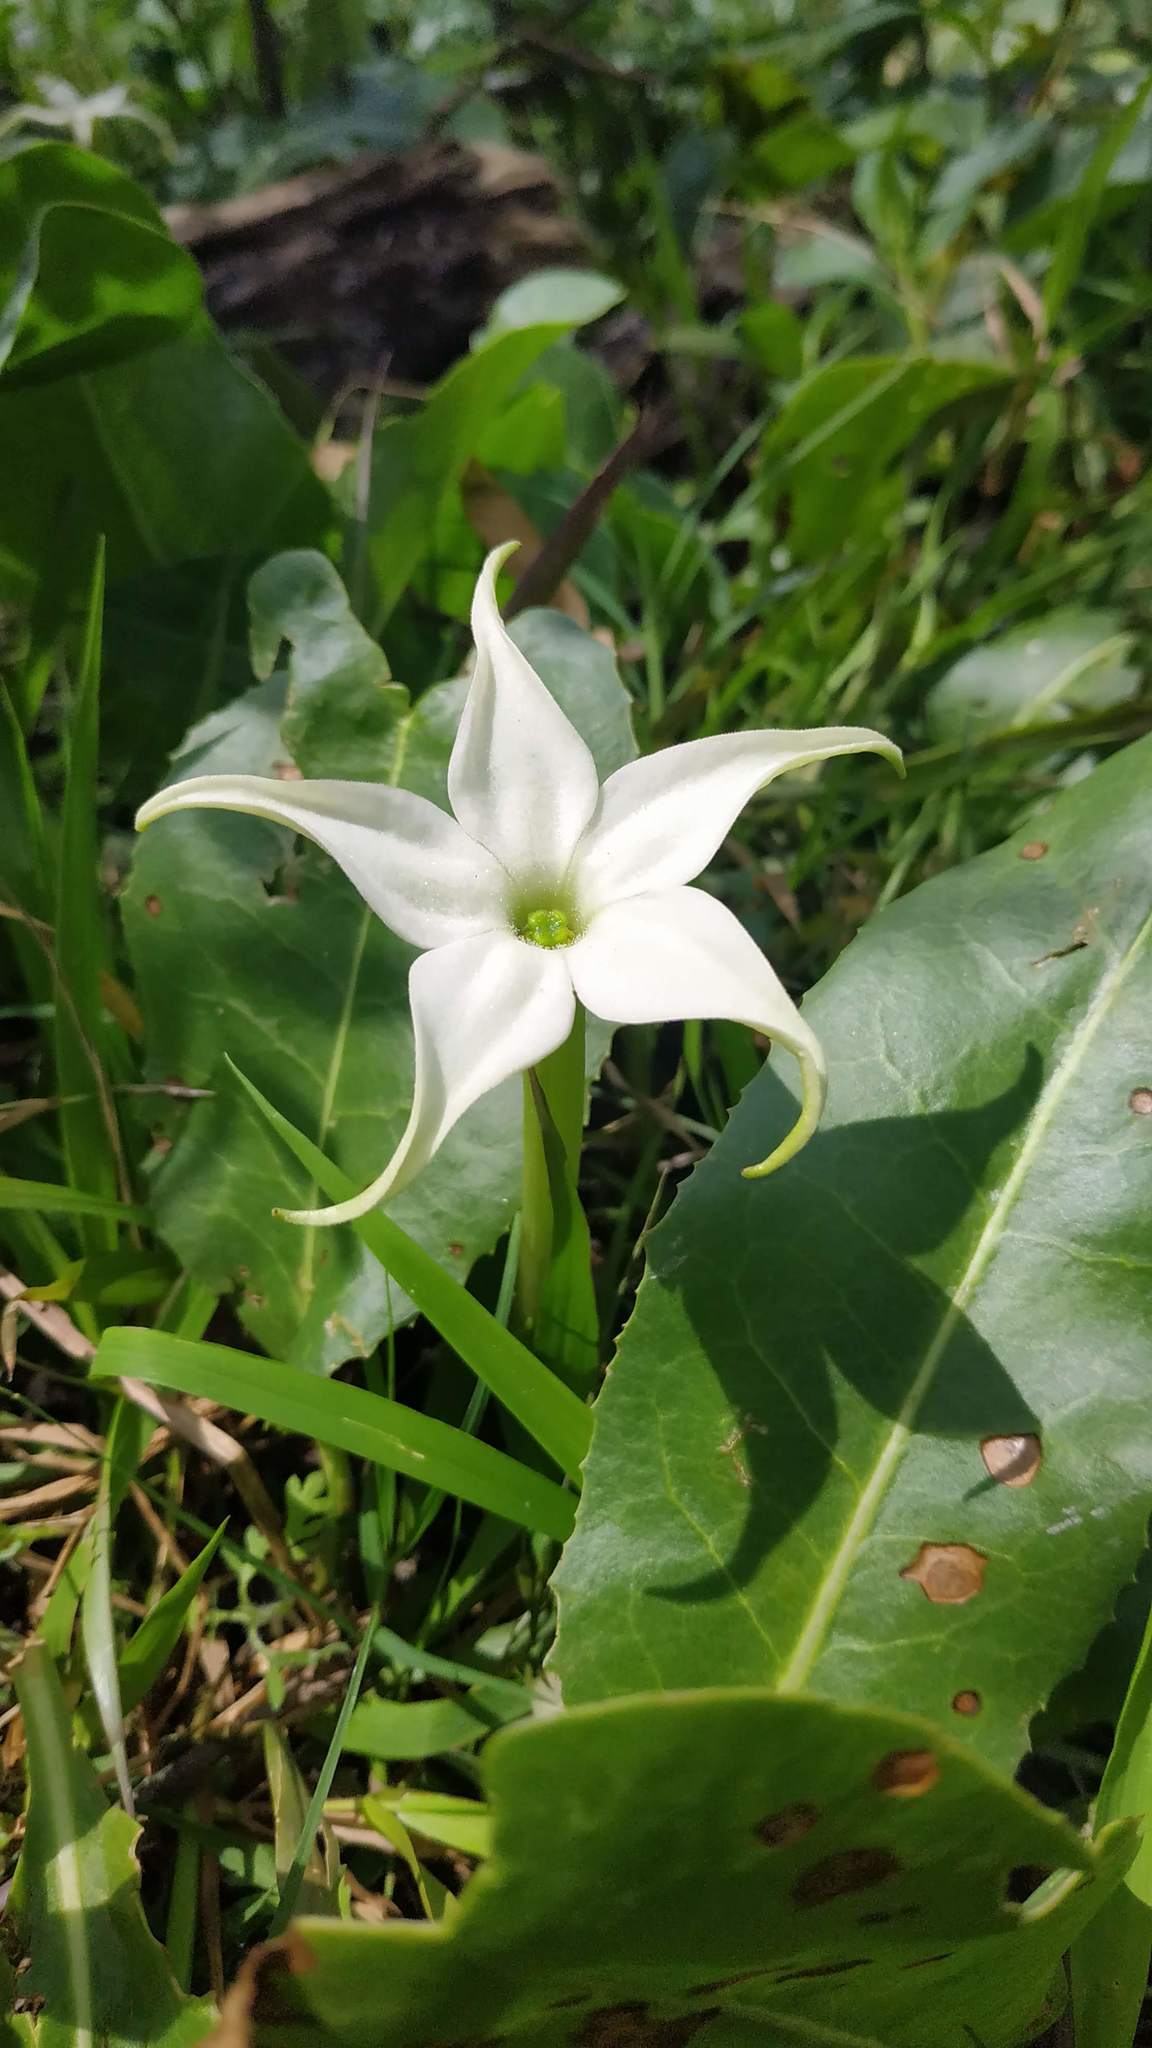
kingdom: Plantae
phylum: Tracheophyta
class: Magnoliopsida
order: Solanales
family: Solanaceae
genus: Jaborosa
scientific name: Jaborosa integrifolia
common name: Springblossom
